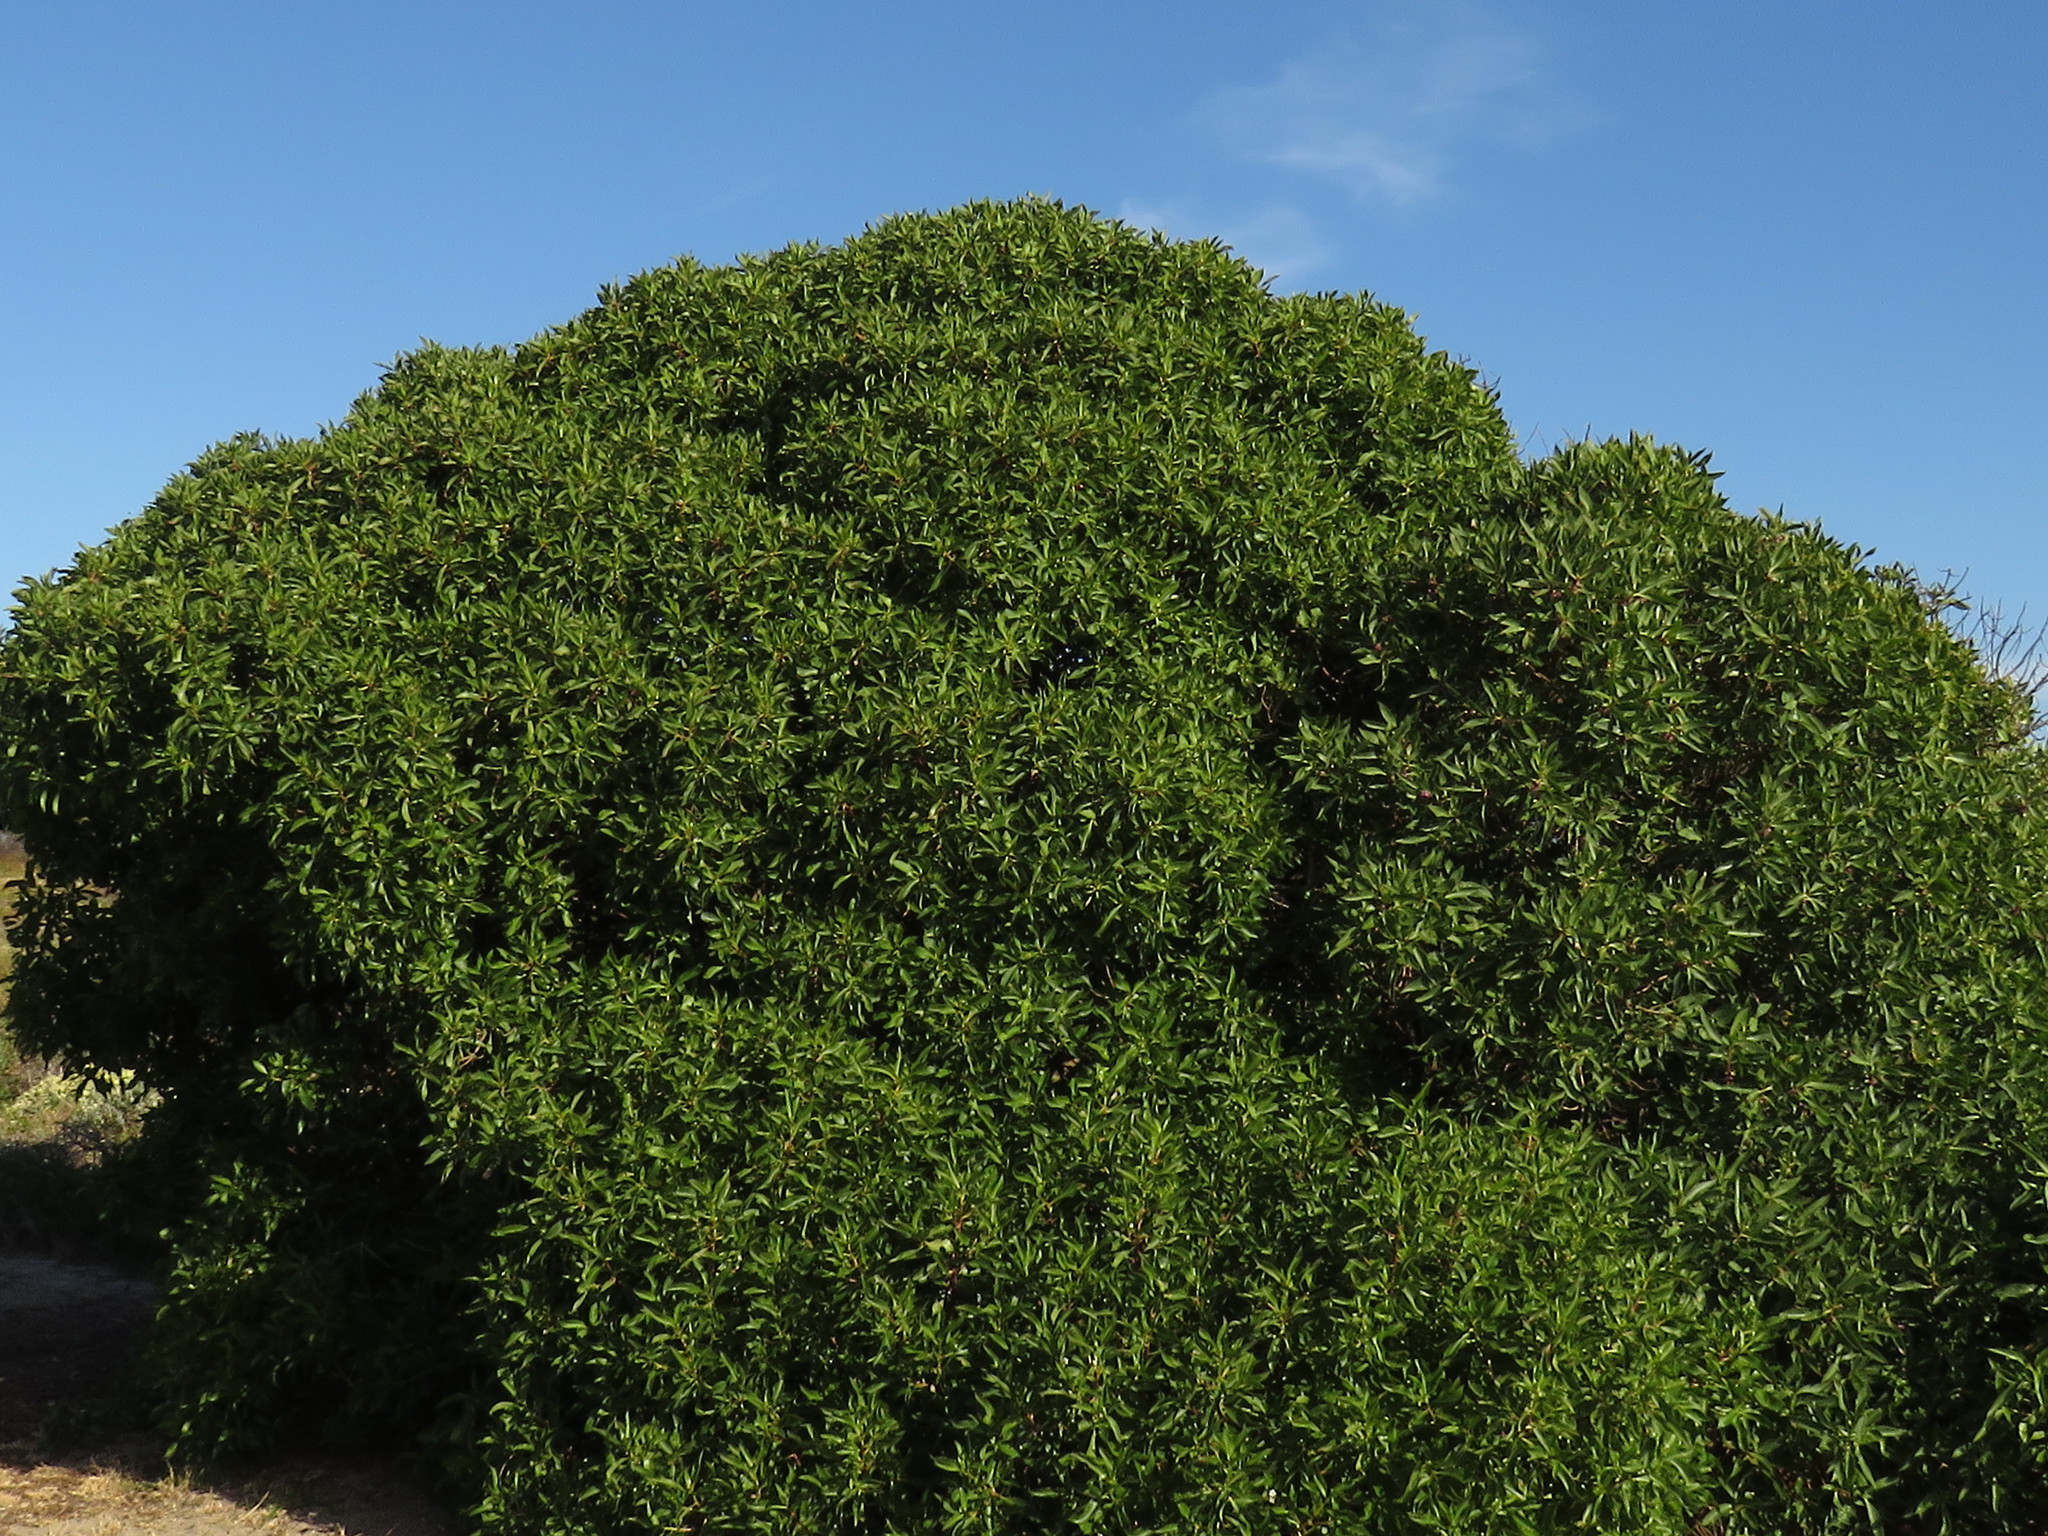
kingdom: Plantae
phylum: Tracheophyta
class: Magnoliopsida
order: Lamiales
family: Scrophulariaceae
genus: Myoporum
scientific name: Myoporum insulare
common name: Common boobialla
